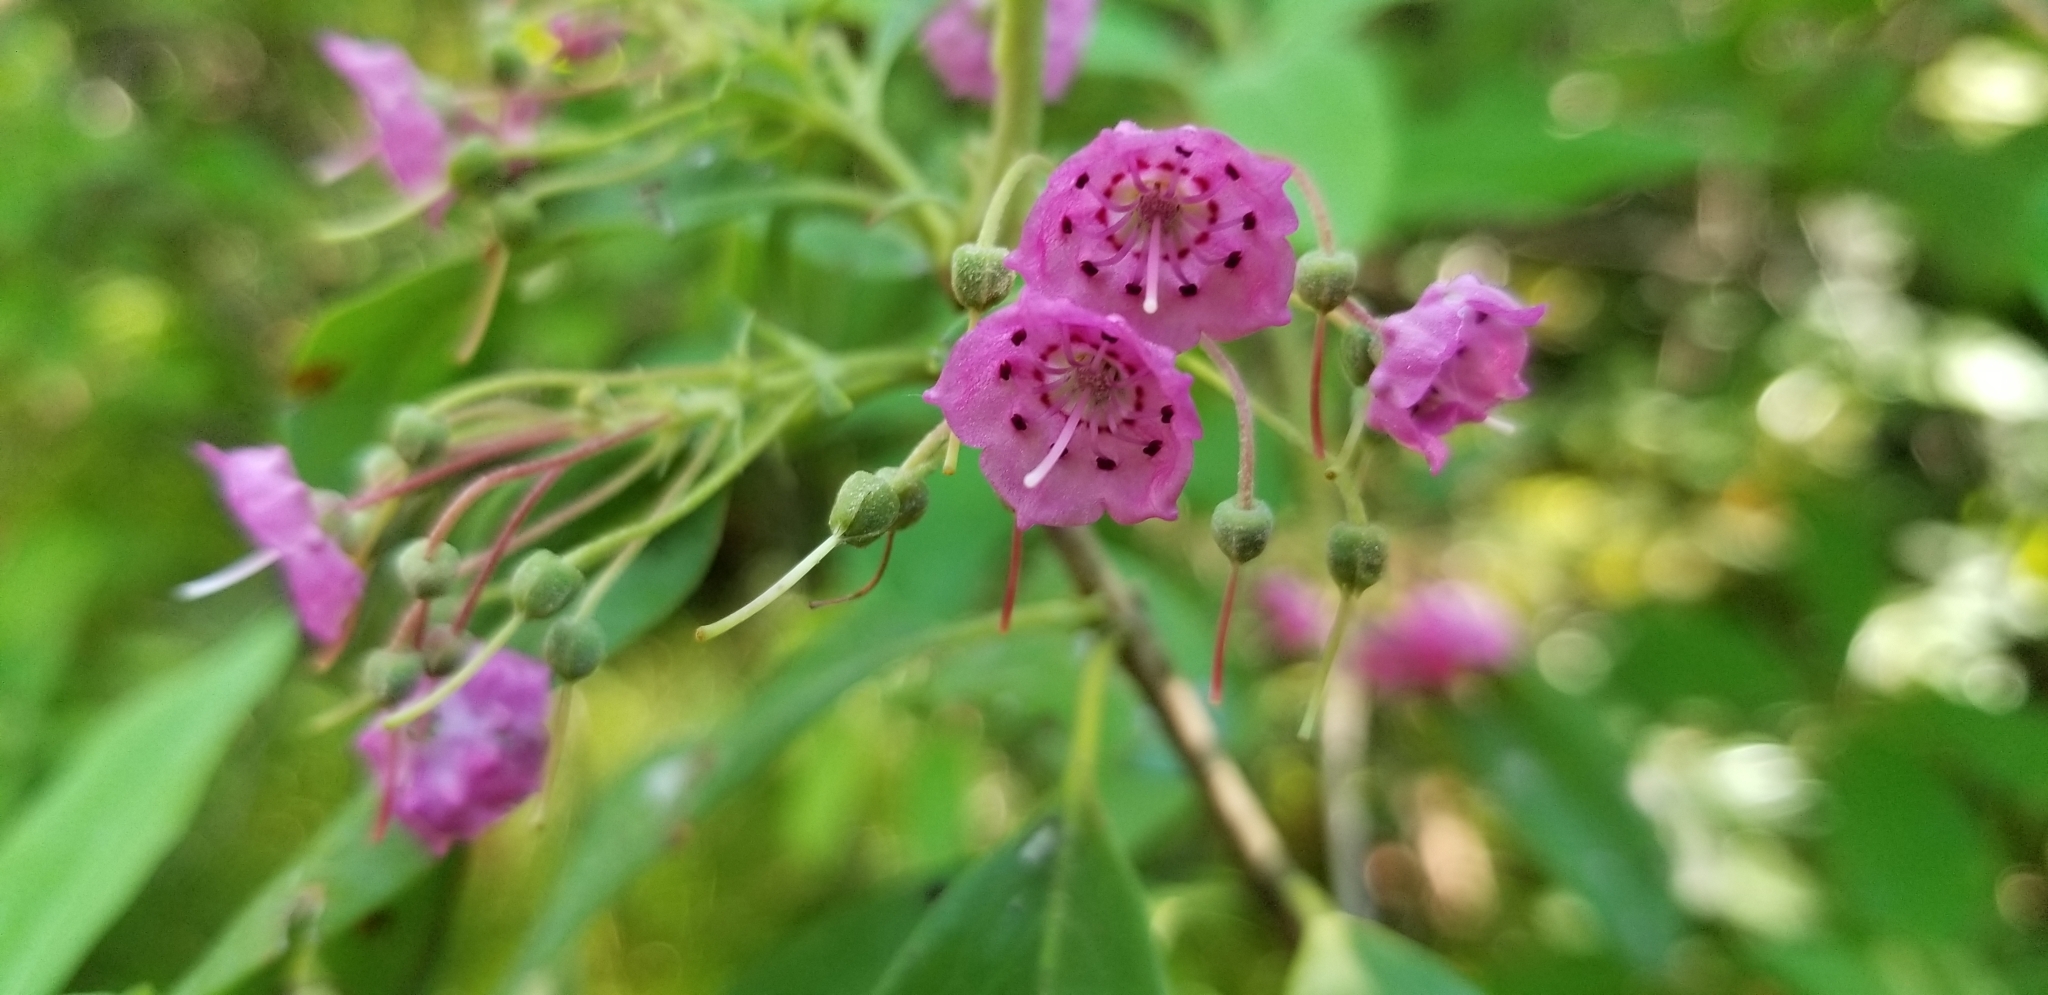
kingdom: Plantae
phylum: Tracheophyta
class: Magnoliopsida
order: Ericales
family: Ericaceae
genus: Kalmia
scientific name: Kalmia angustifolia
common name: Sheep-laurel
